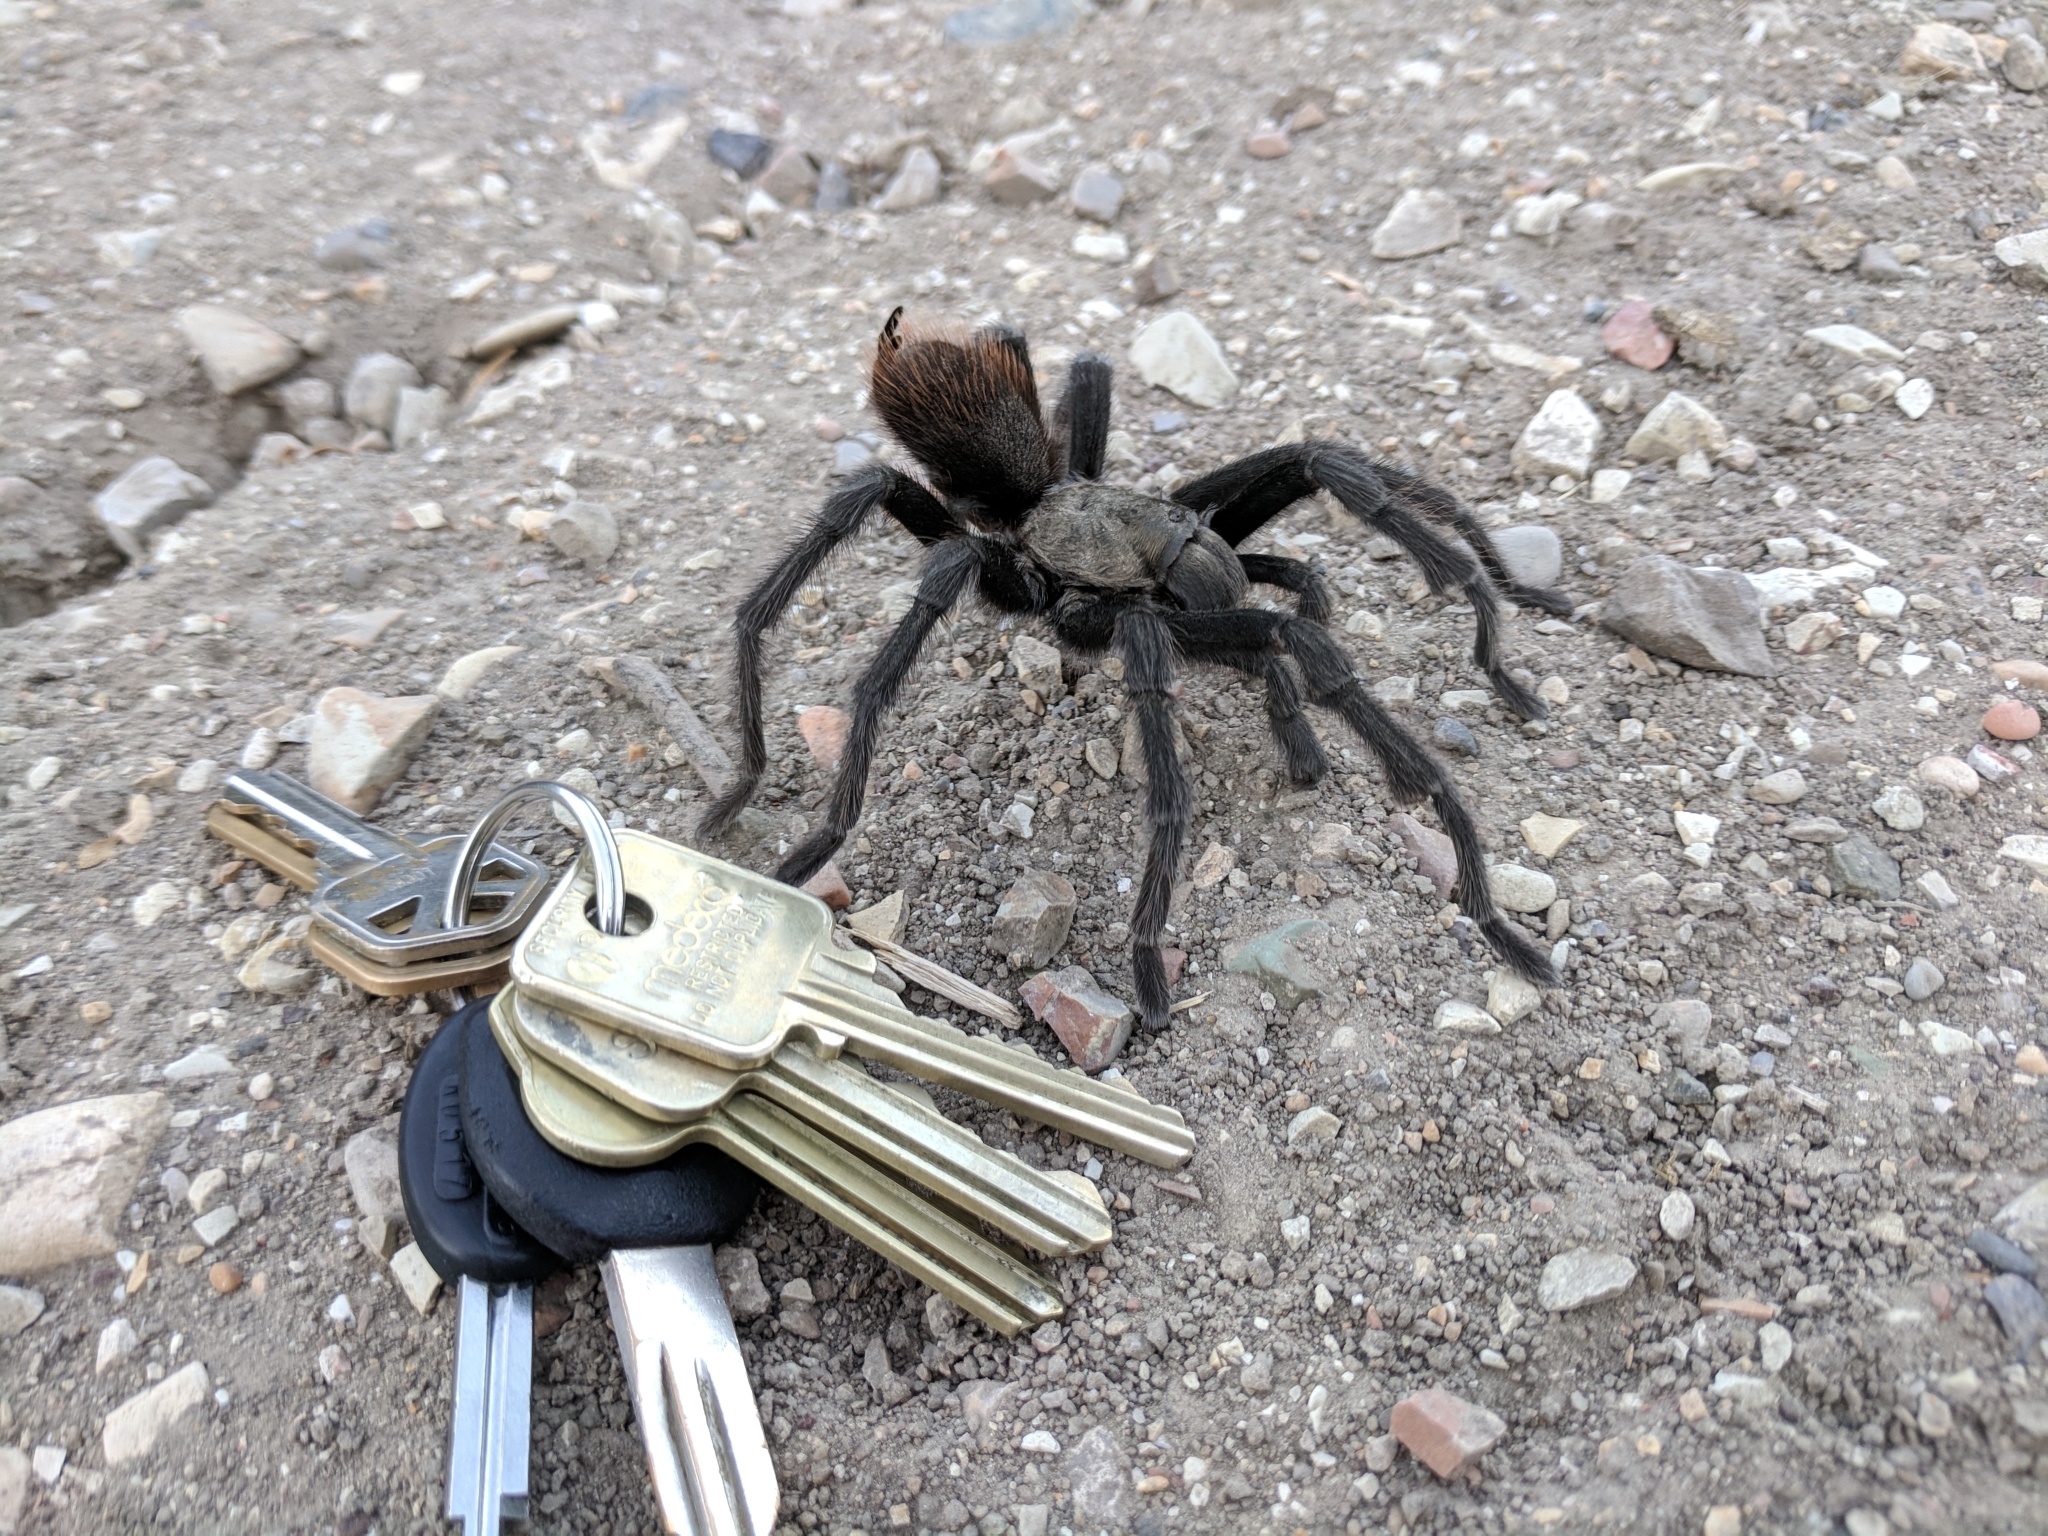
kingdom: Animalia
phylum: Arthropoda
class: Arachnida
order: Araneae
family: Theraphosidae
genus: Aphonopelma
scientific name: Aphonopelma iodius
